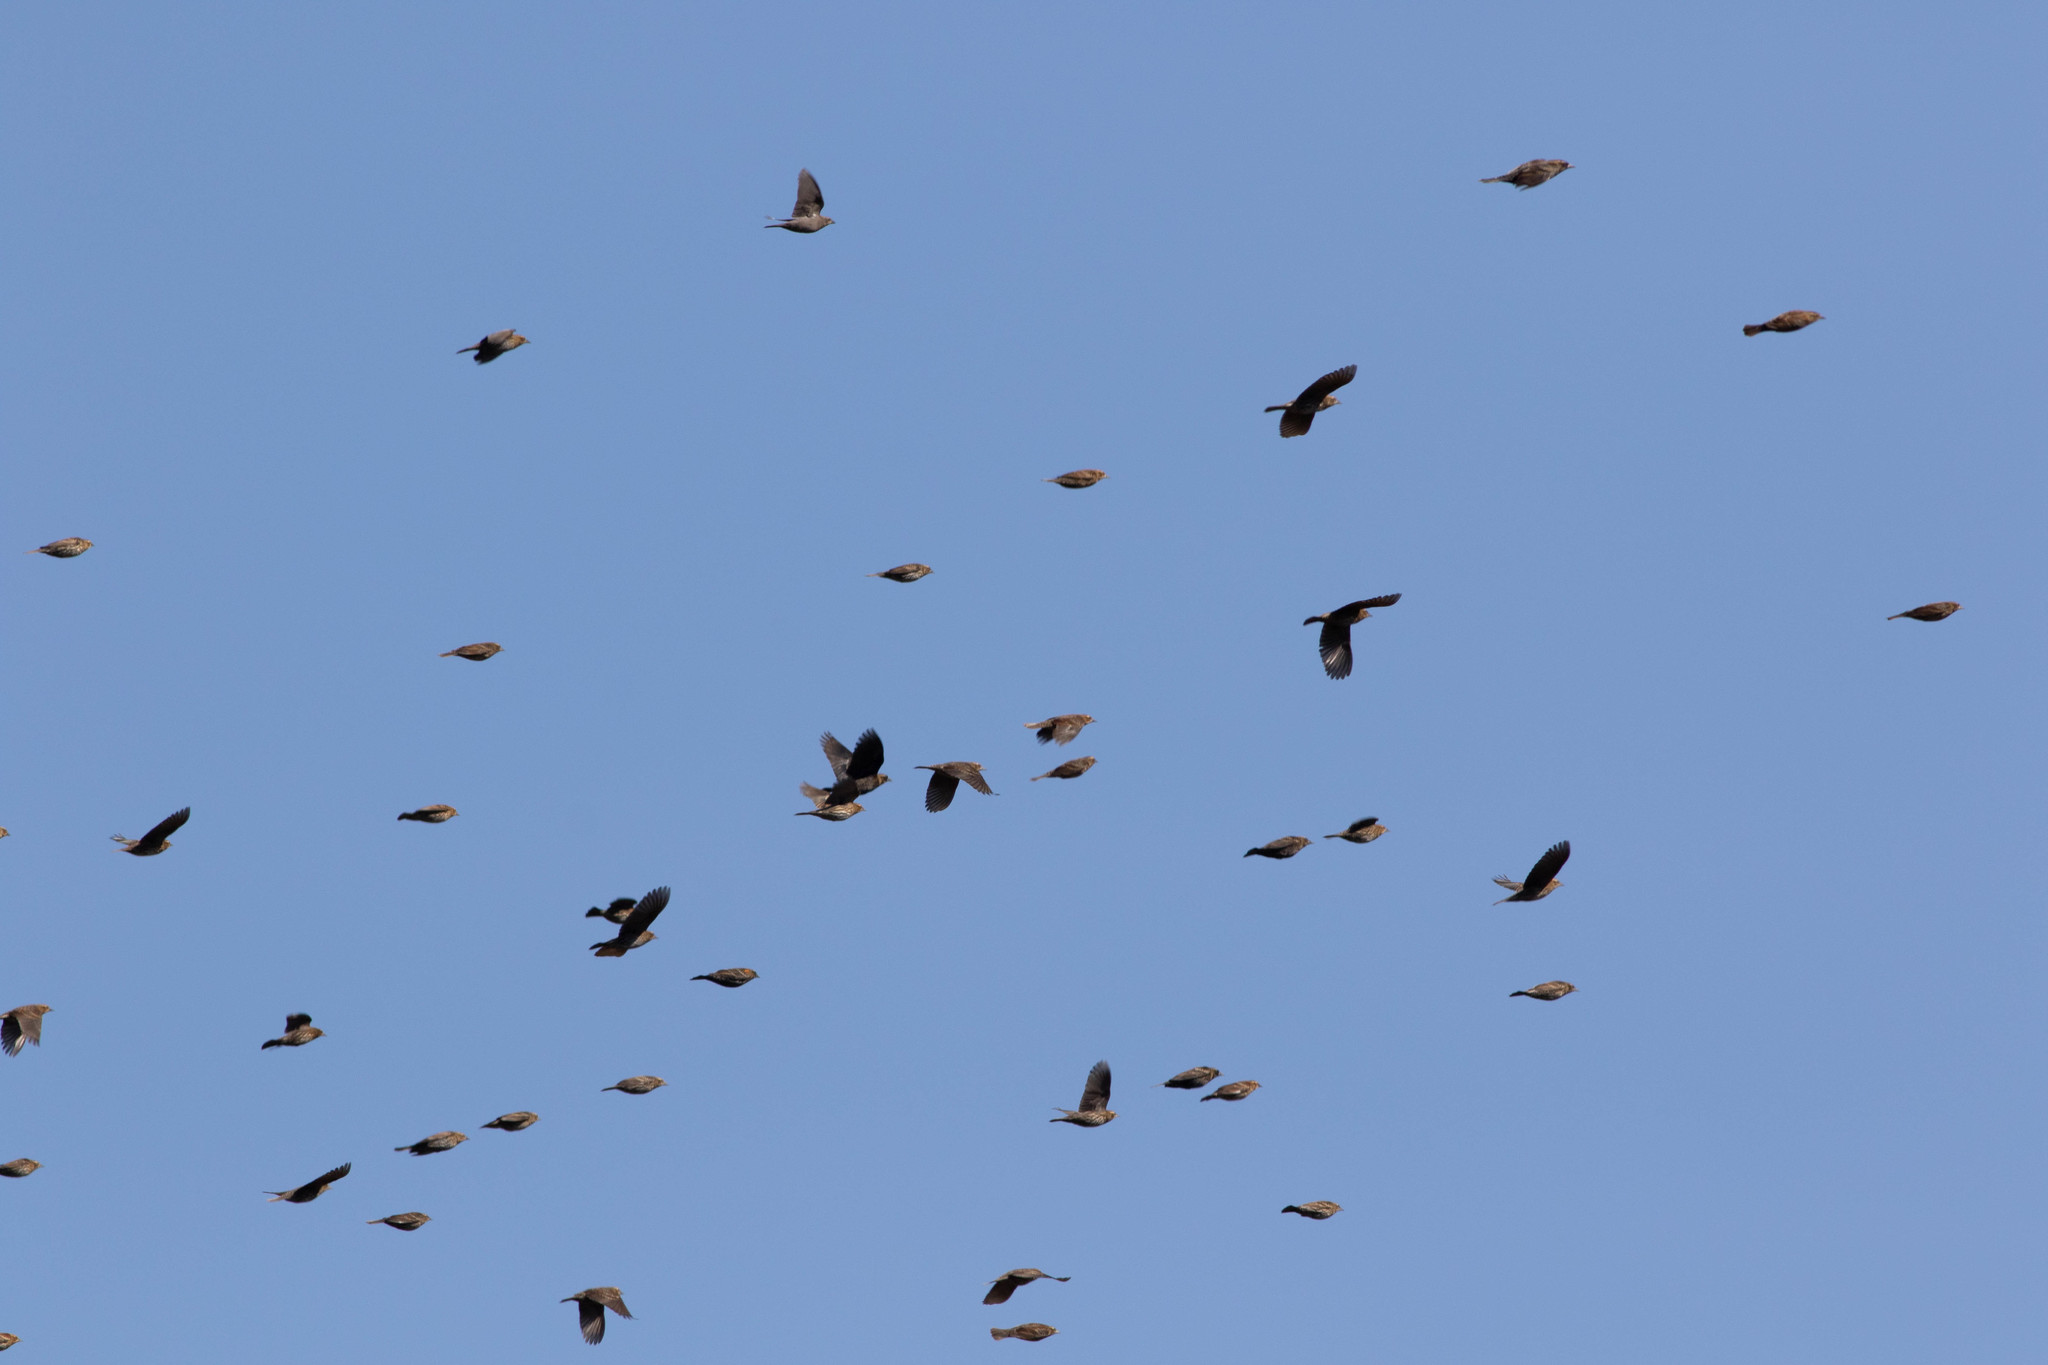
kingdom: Animalia
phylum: Chordata
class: Aves
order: Passeriformes
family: Icteridae
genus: Agelaius
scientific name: Agelaius phoeniceus
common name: Red-winged blackbird
